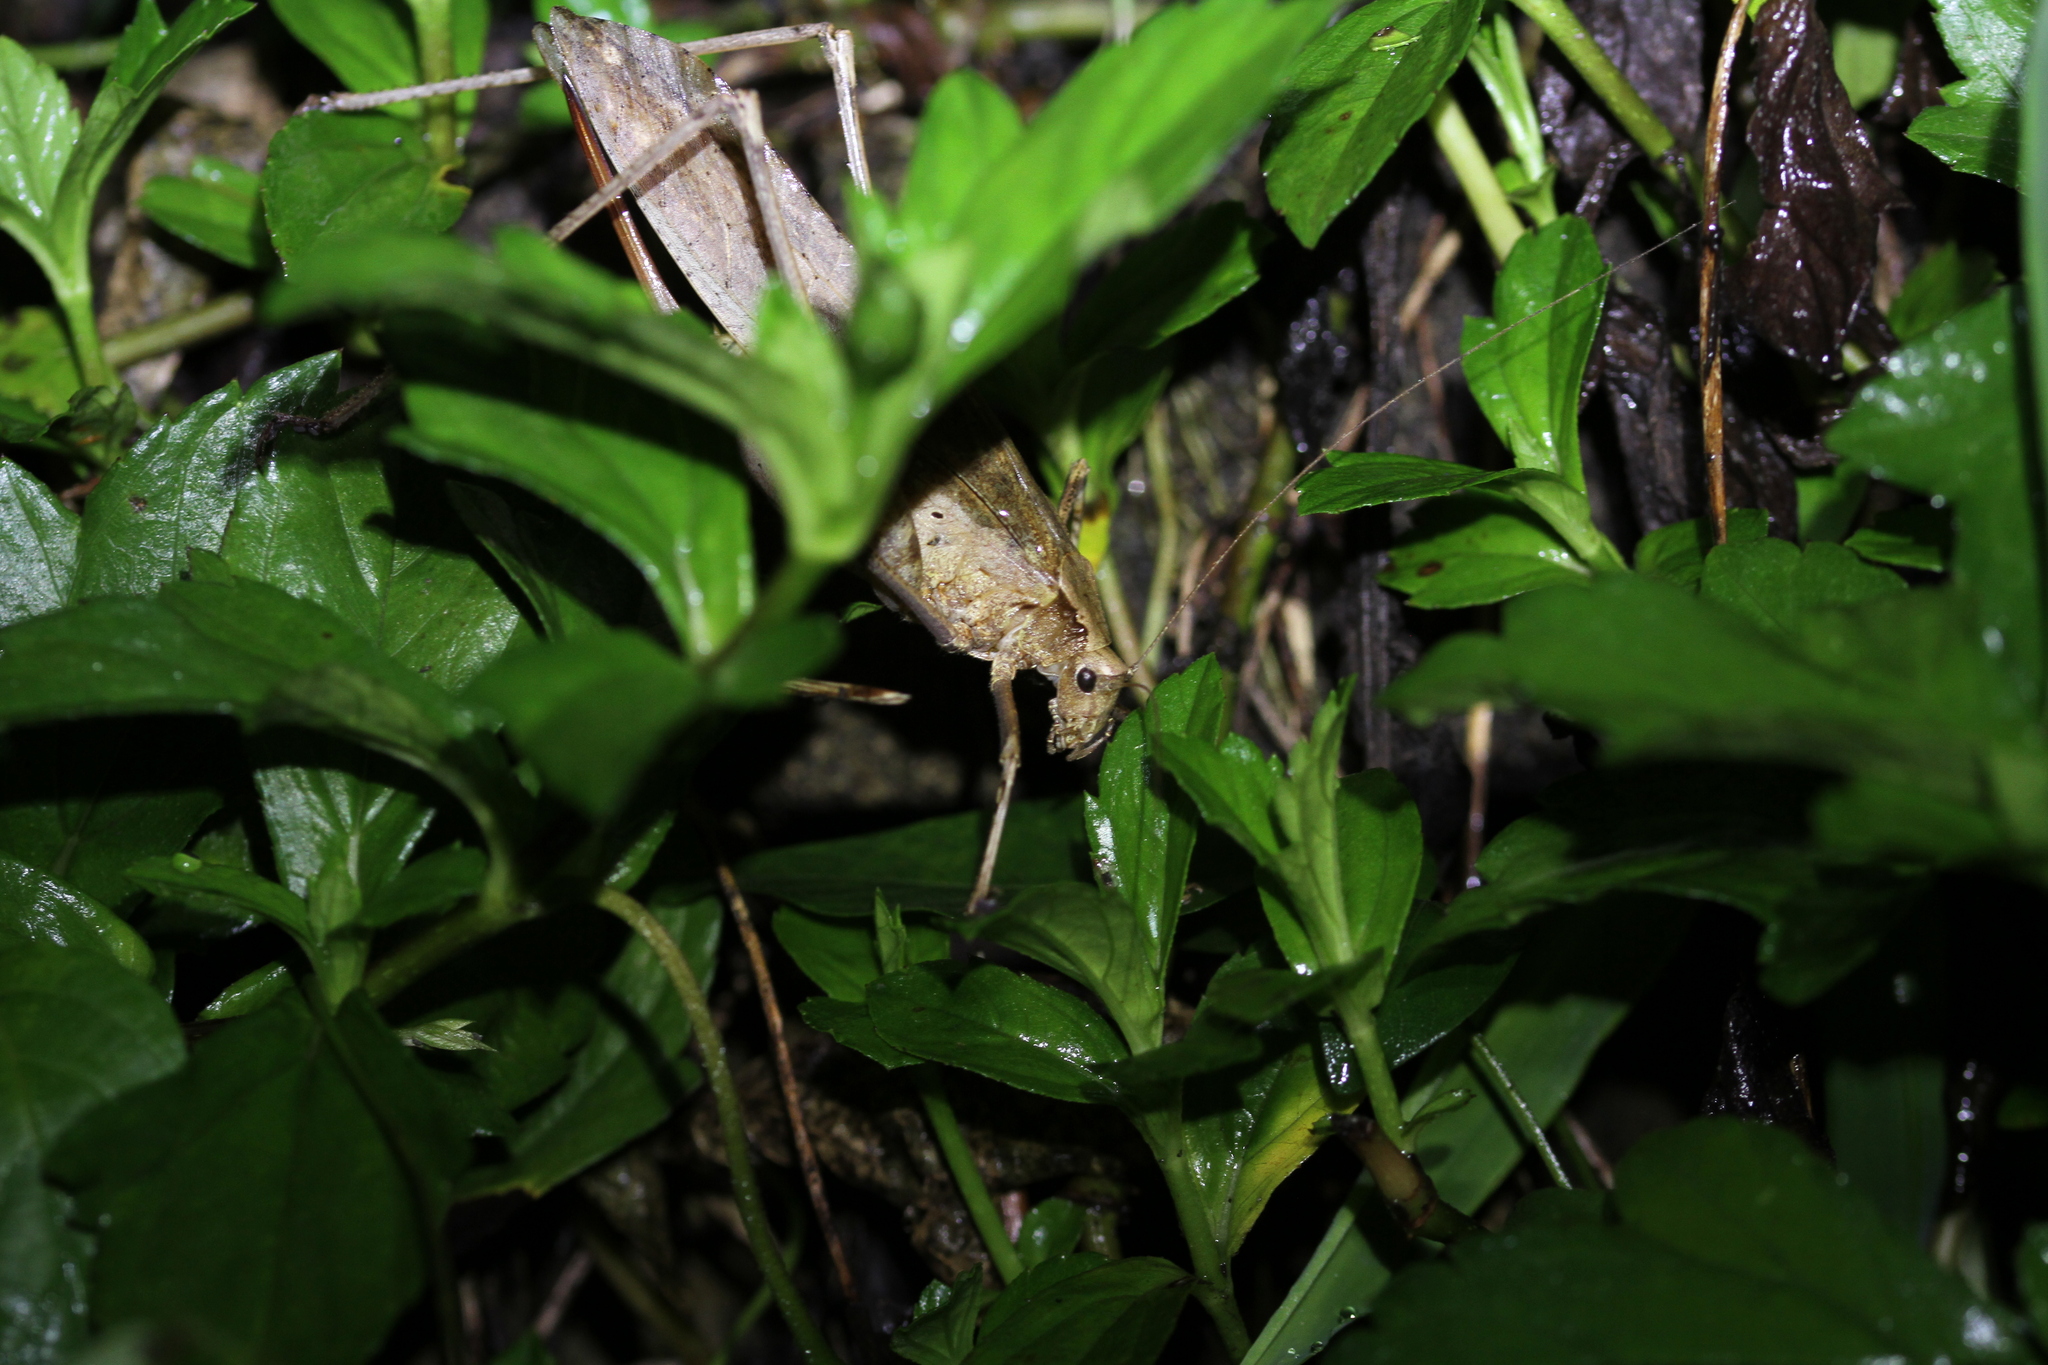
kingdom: Animalia
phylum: Arthropoda
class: Insecta
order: Orthoptera
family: Tettigoniidae
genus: Mecopoda
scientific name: Mecopoda elongata
